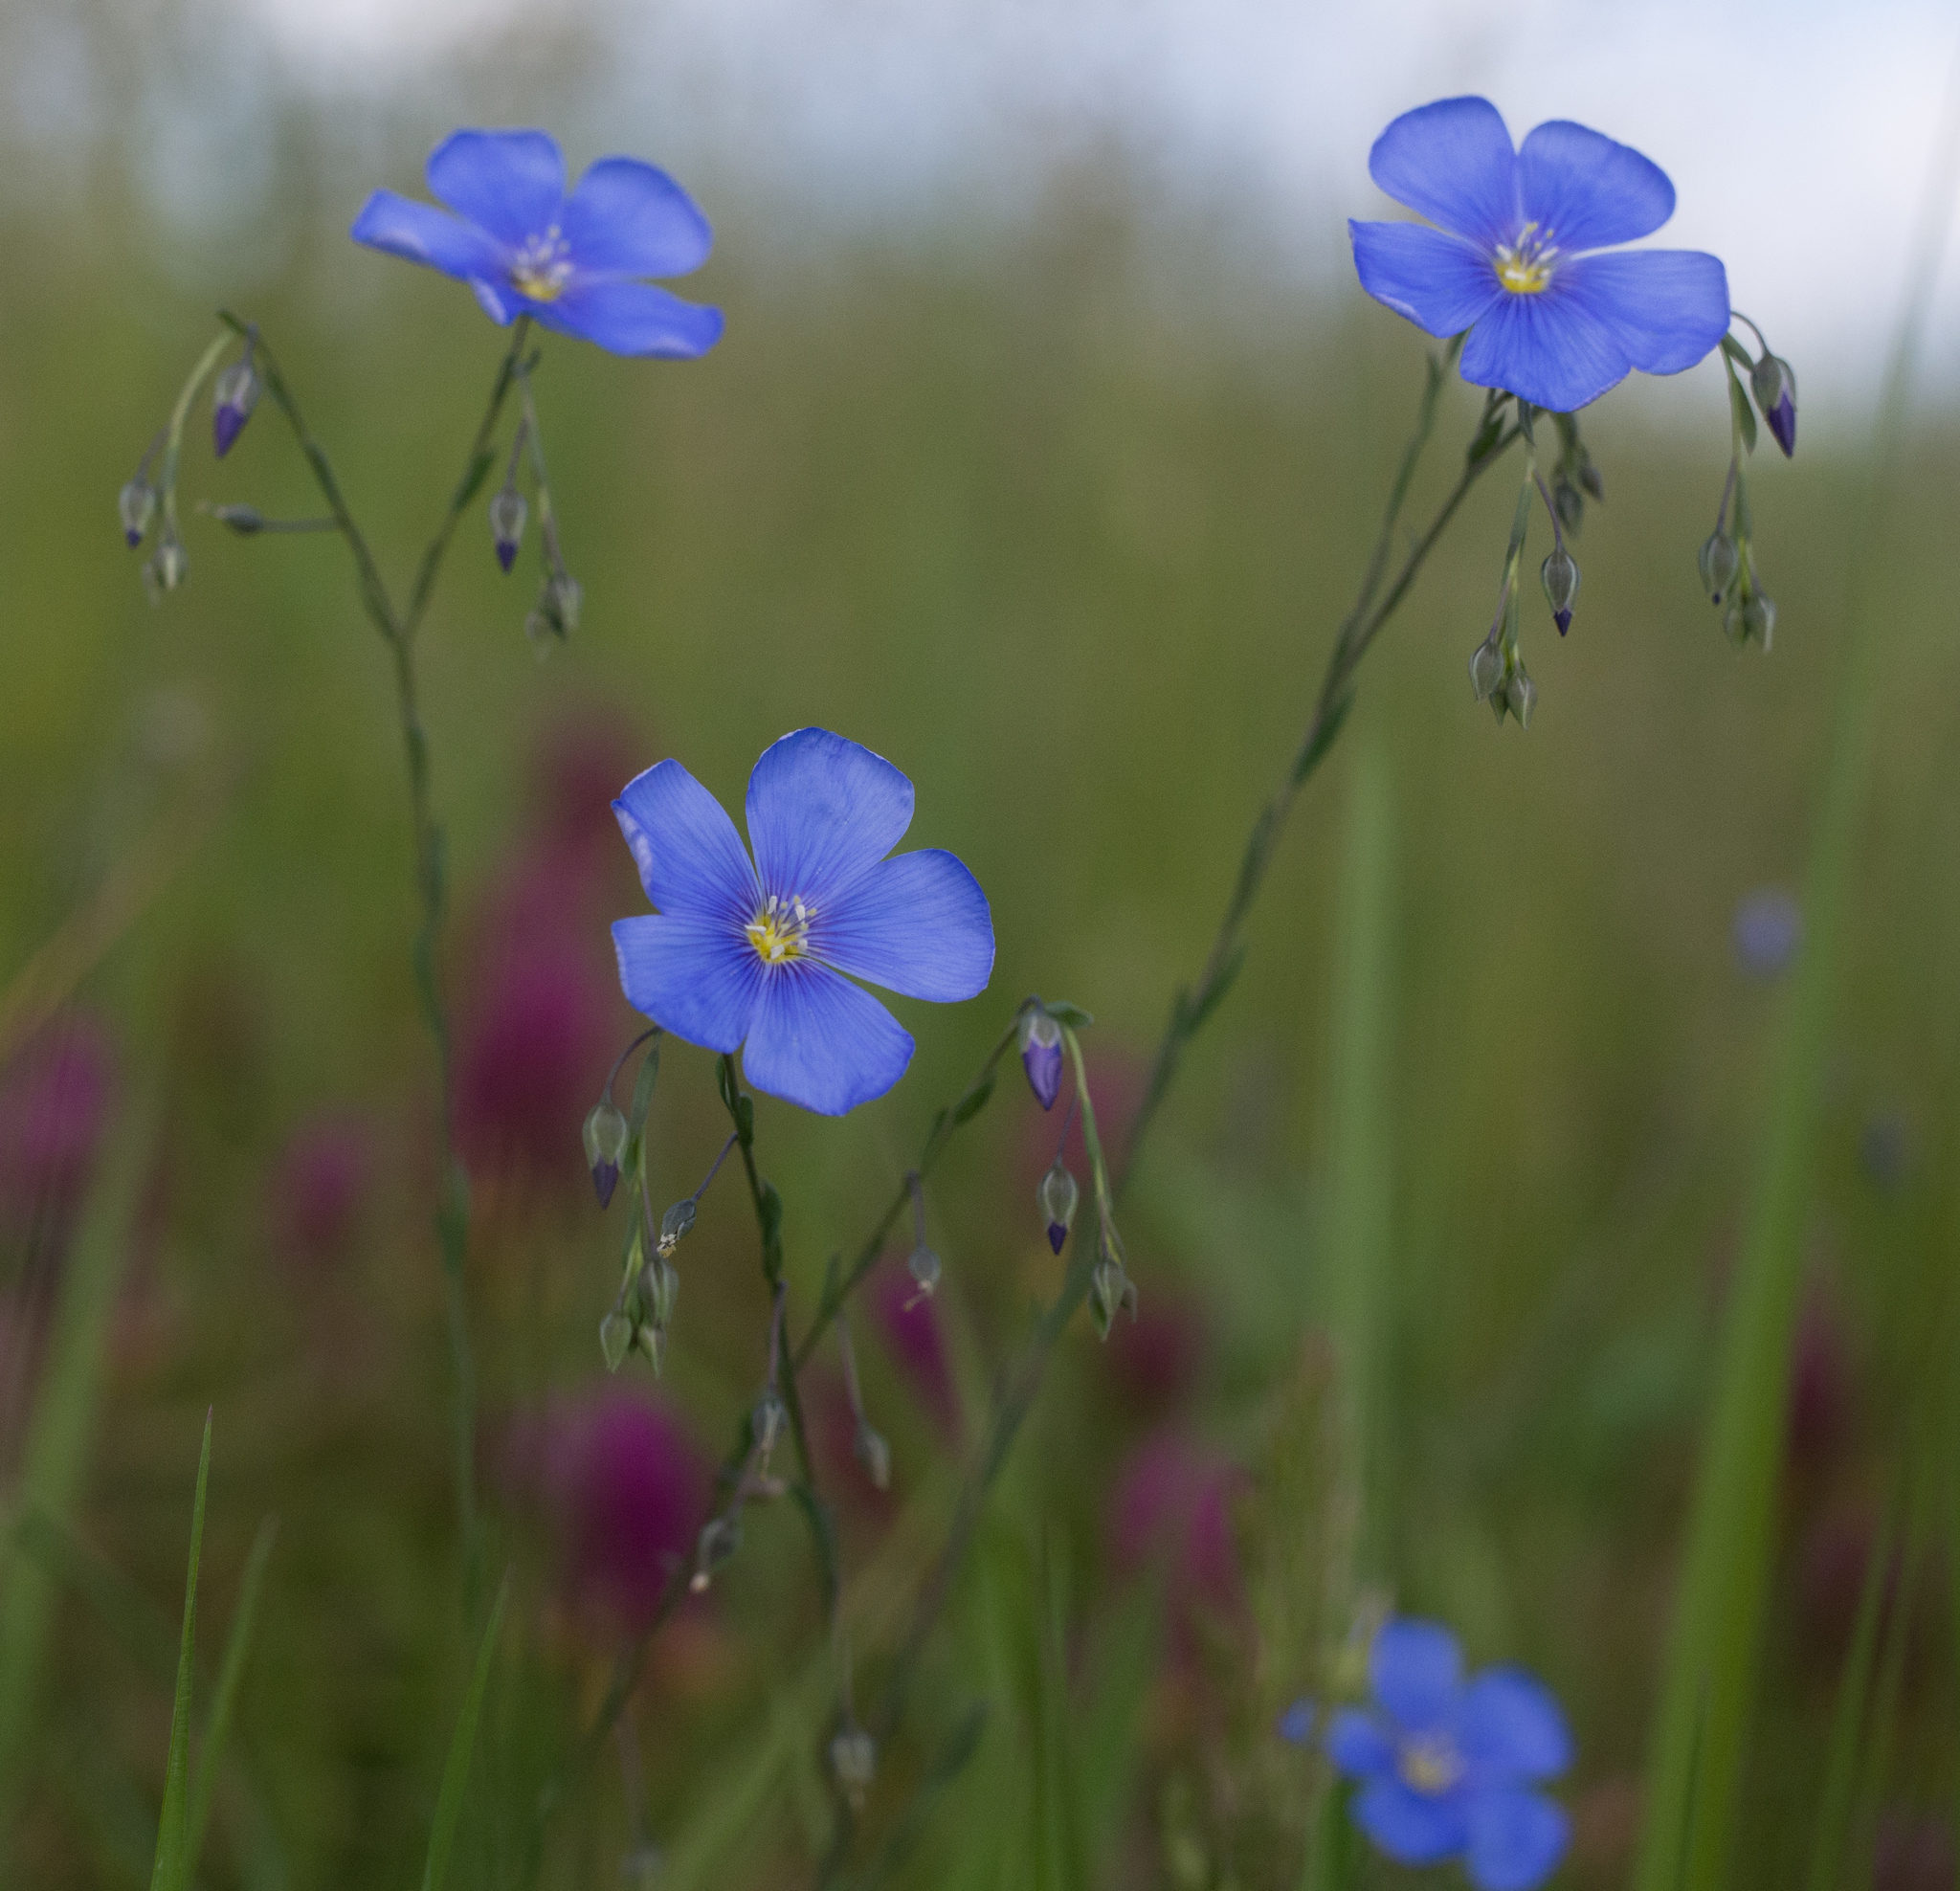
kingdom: Plantae
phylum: Tracheophyta
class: Magnoliopsida
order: Malpighiales
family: Linaceae
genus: Linum
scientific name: Linum austriacum
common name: Austrian flax
